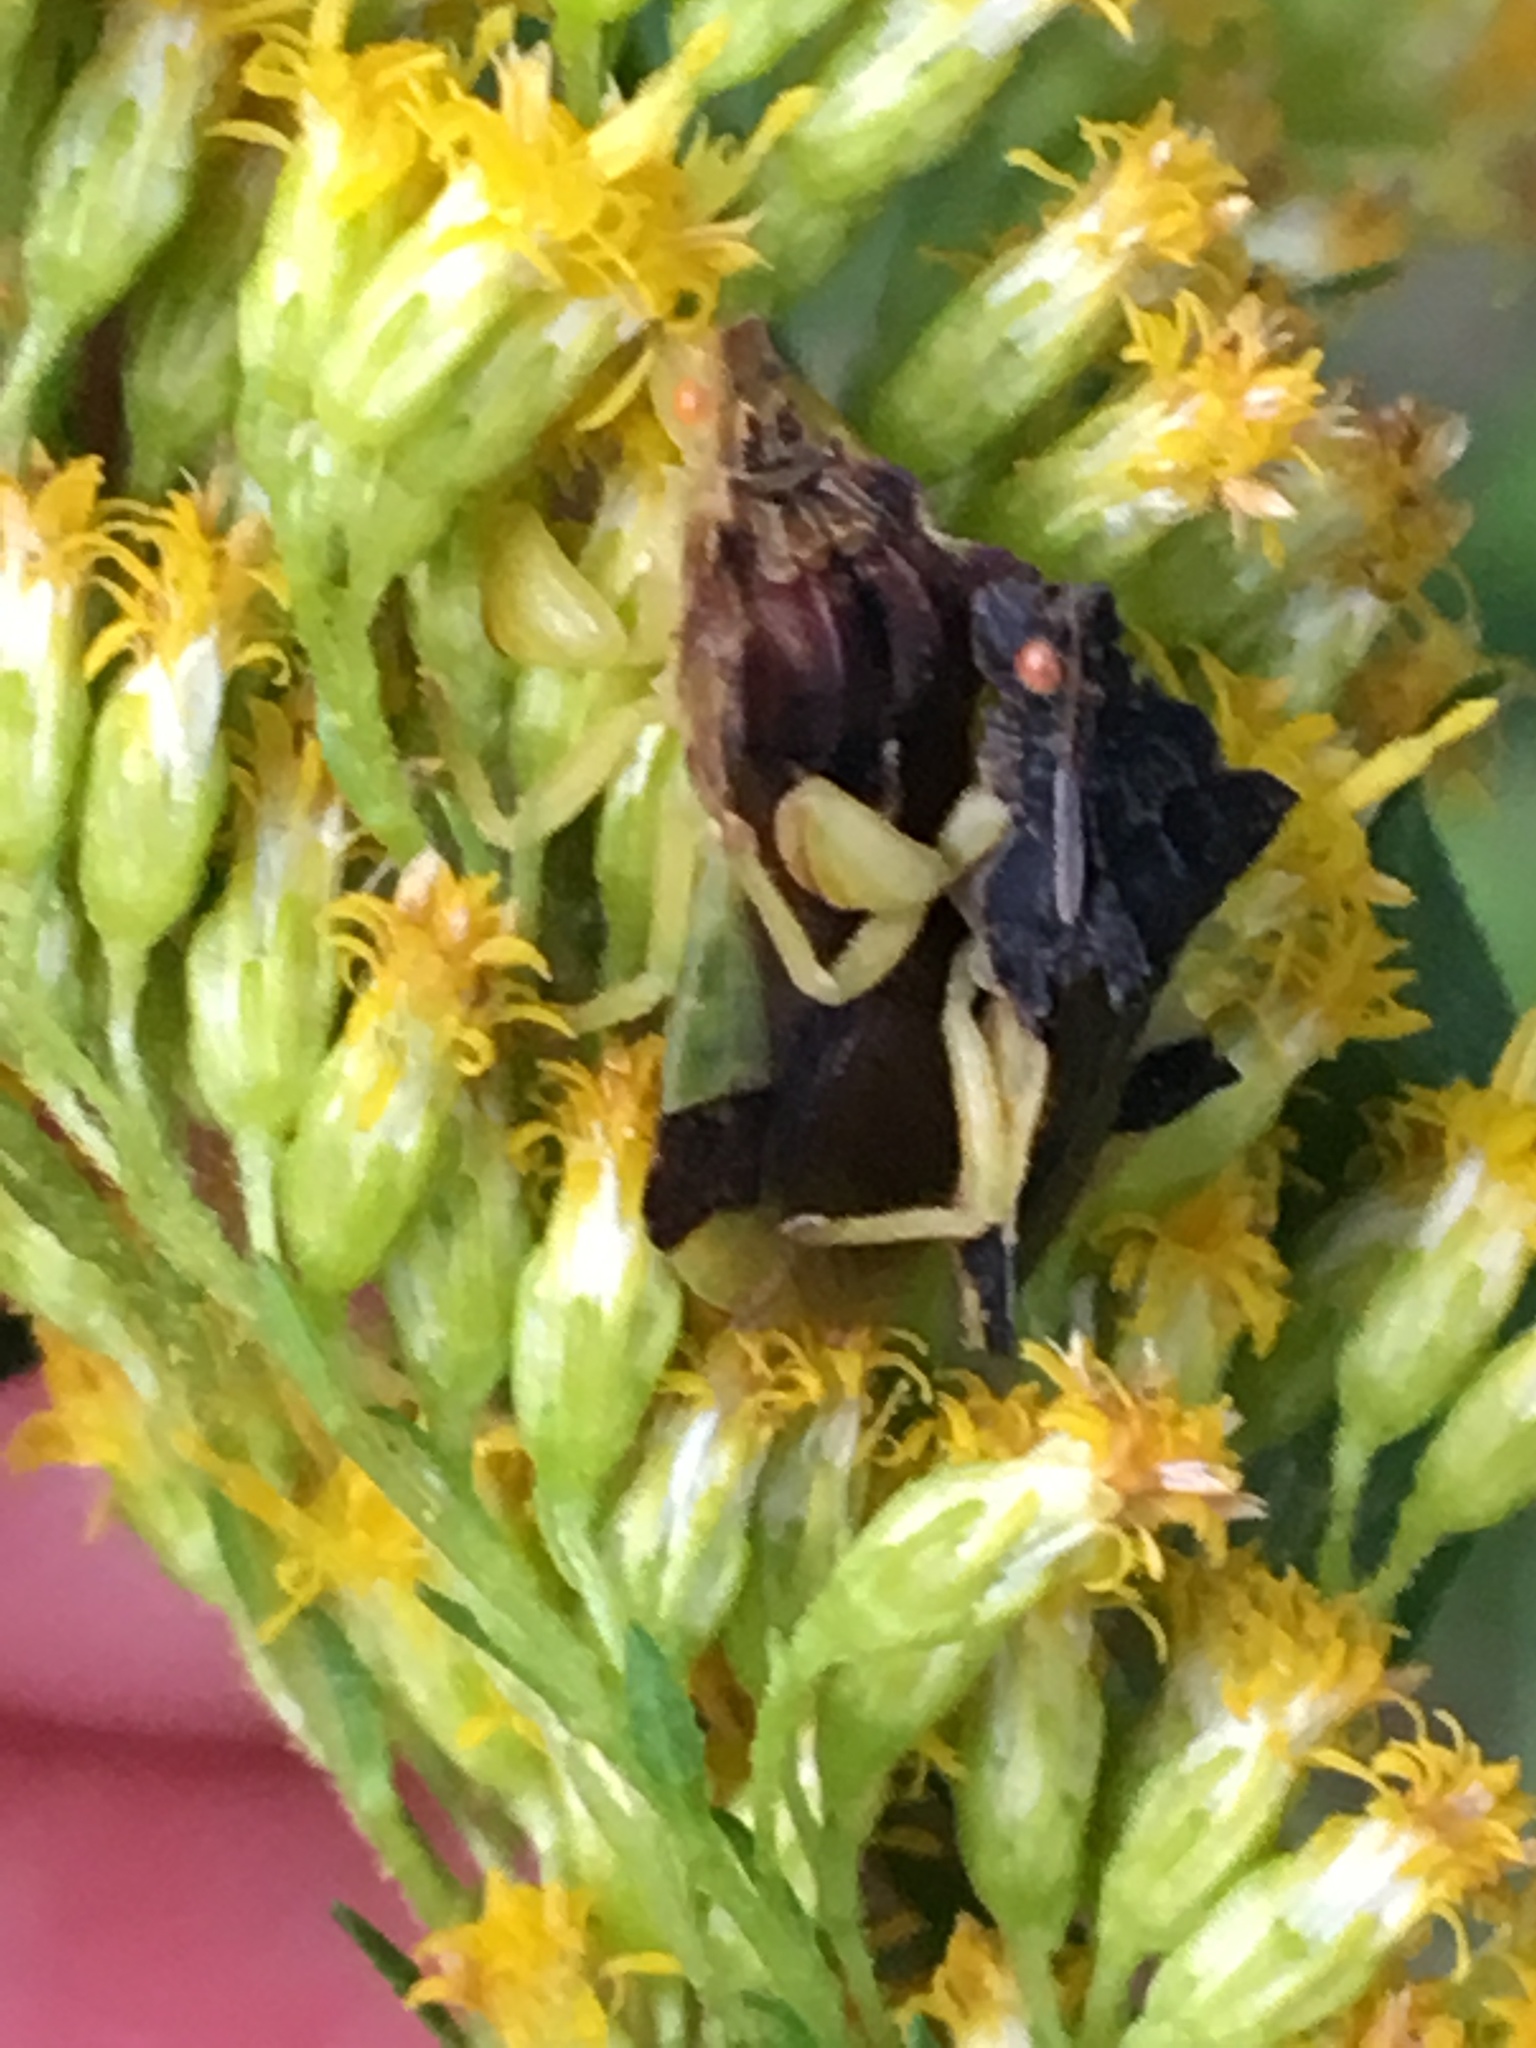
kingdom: Animalia
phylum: Arthropoda
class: Insecta
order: Hemiptera
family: Reduviidae
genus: Phymata
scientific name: Phymata pennsylvanica
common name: Pennsylvania ambush bug
